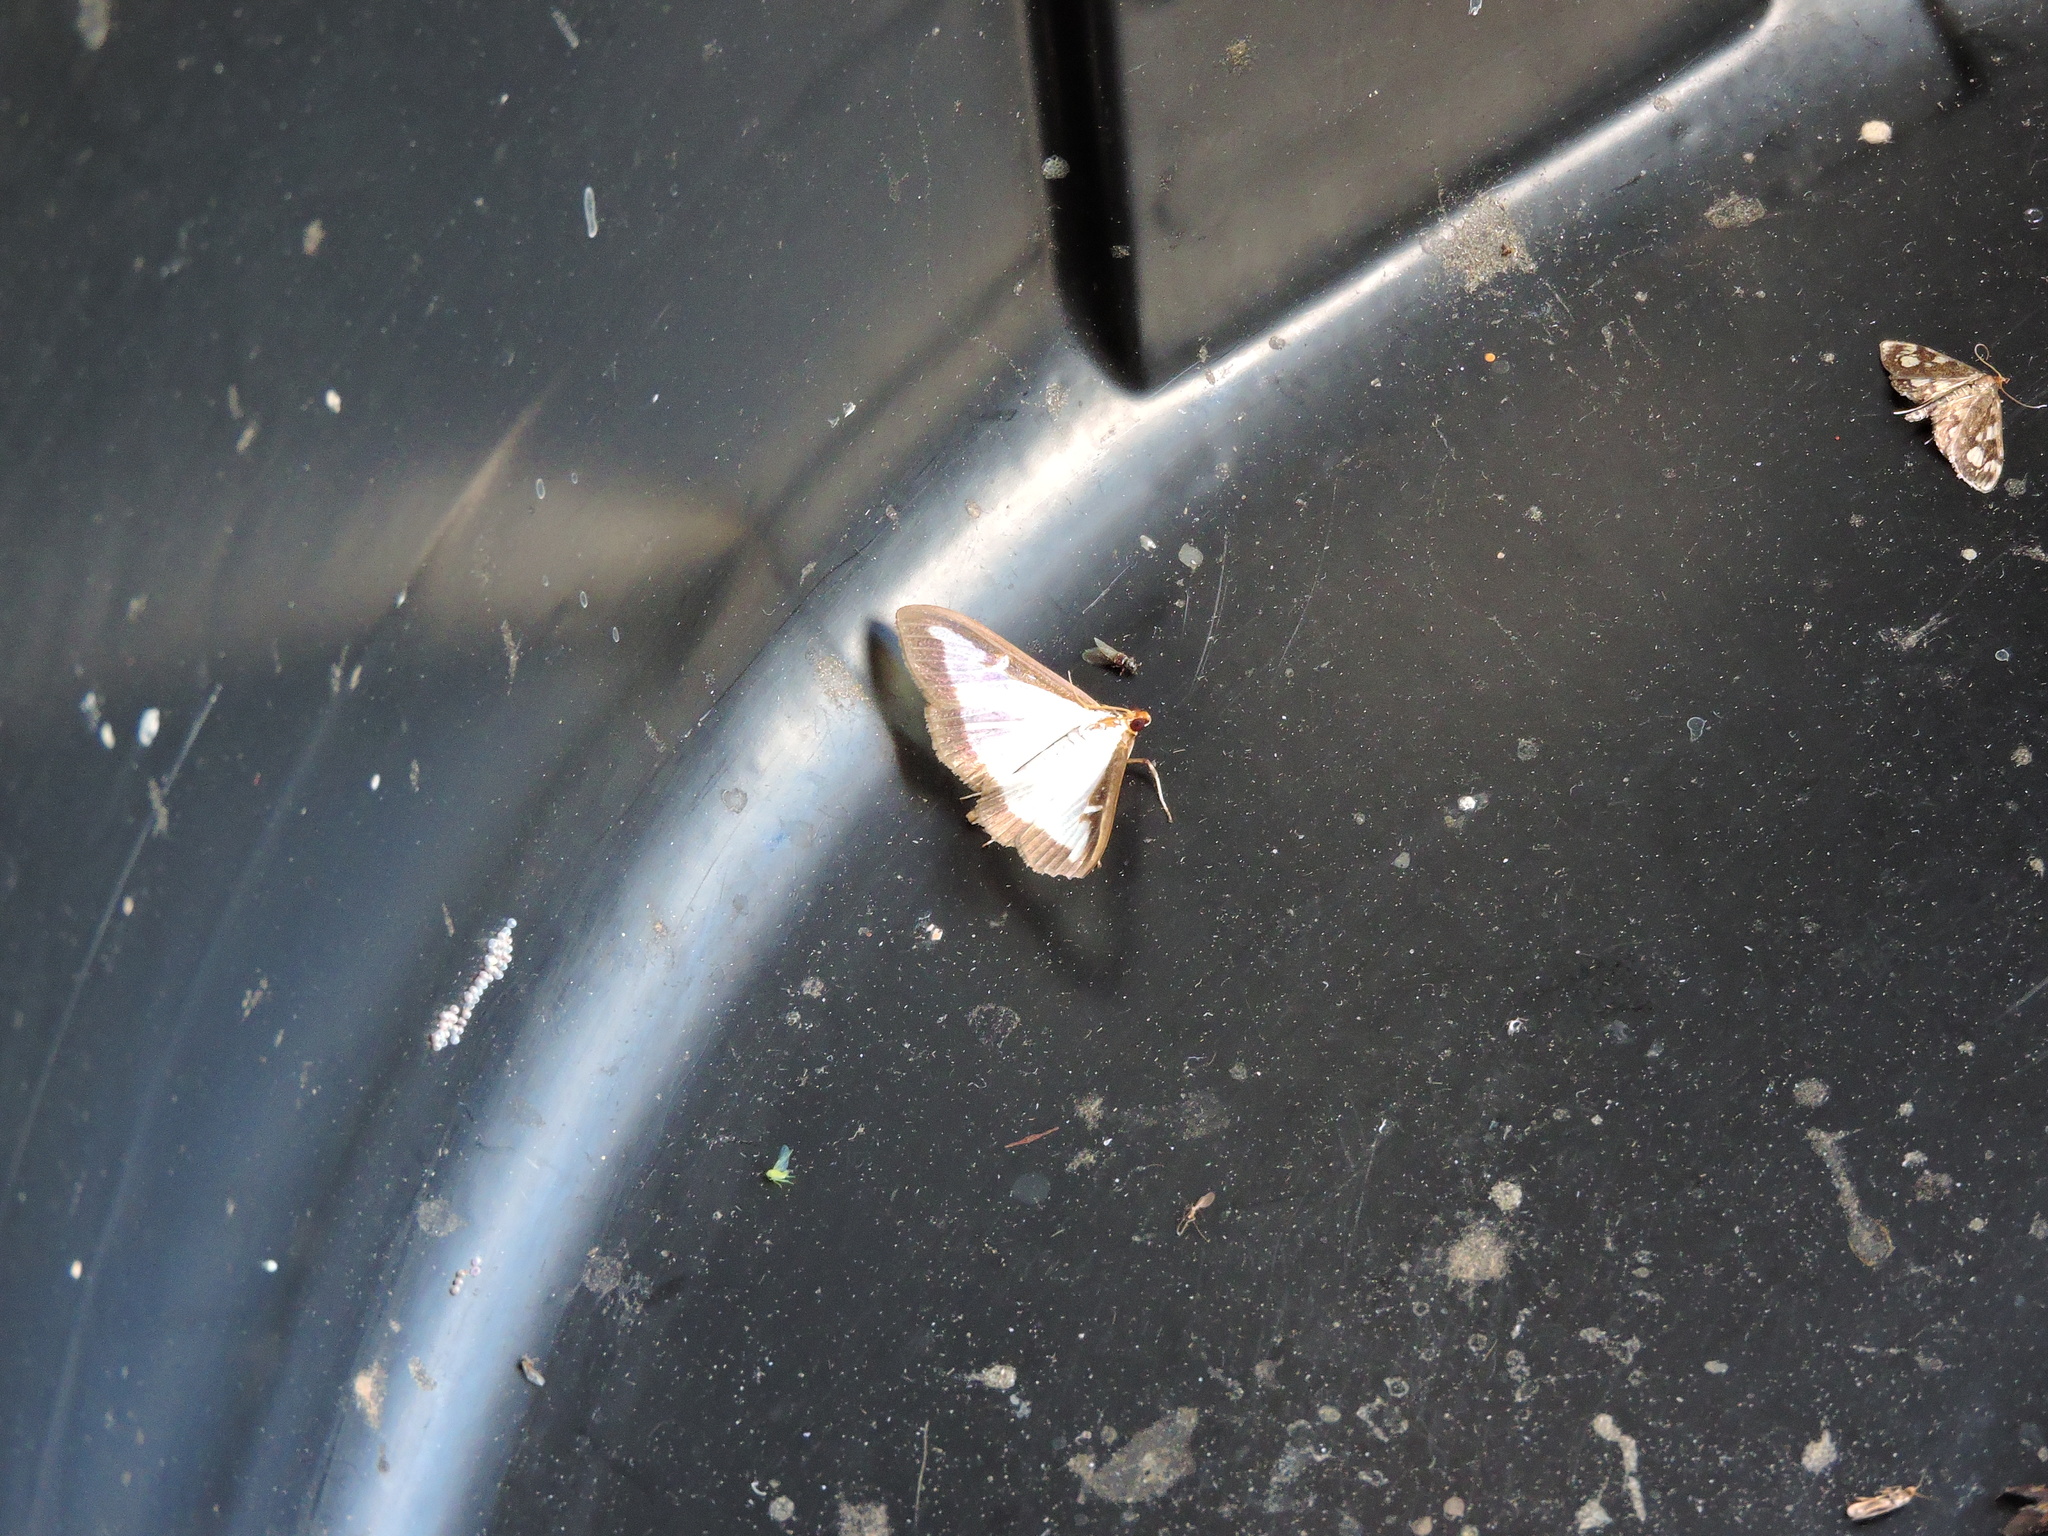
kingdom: Animalia
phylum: Arthropoda
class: Insecta
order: Lepidoptera
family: Crambidae
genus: Anania
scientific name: Anania coronata
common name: Elder pearl
